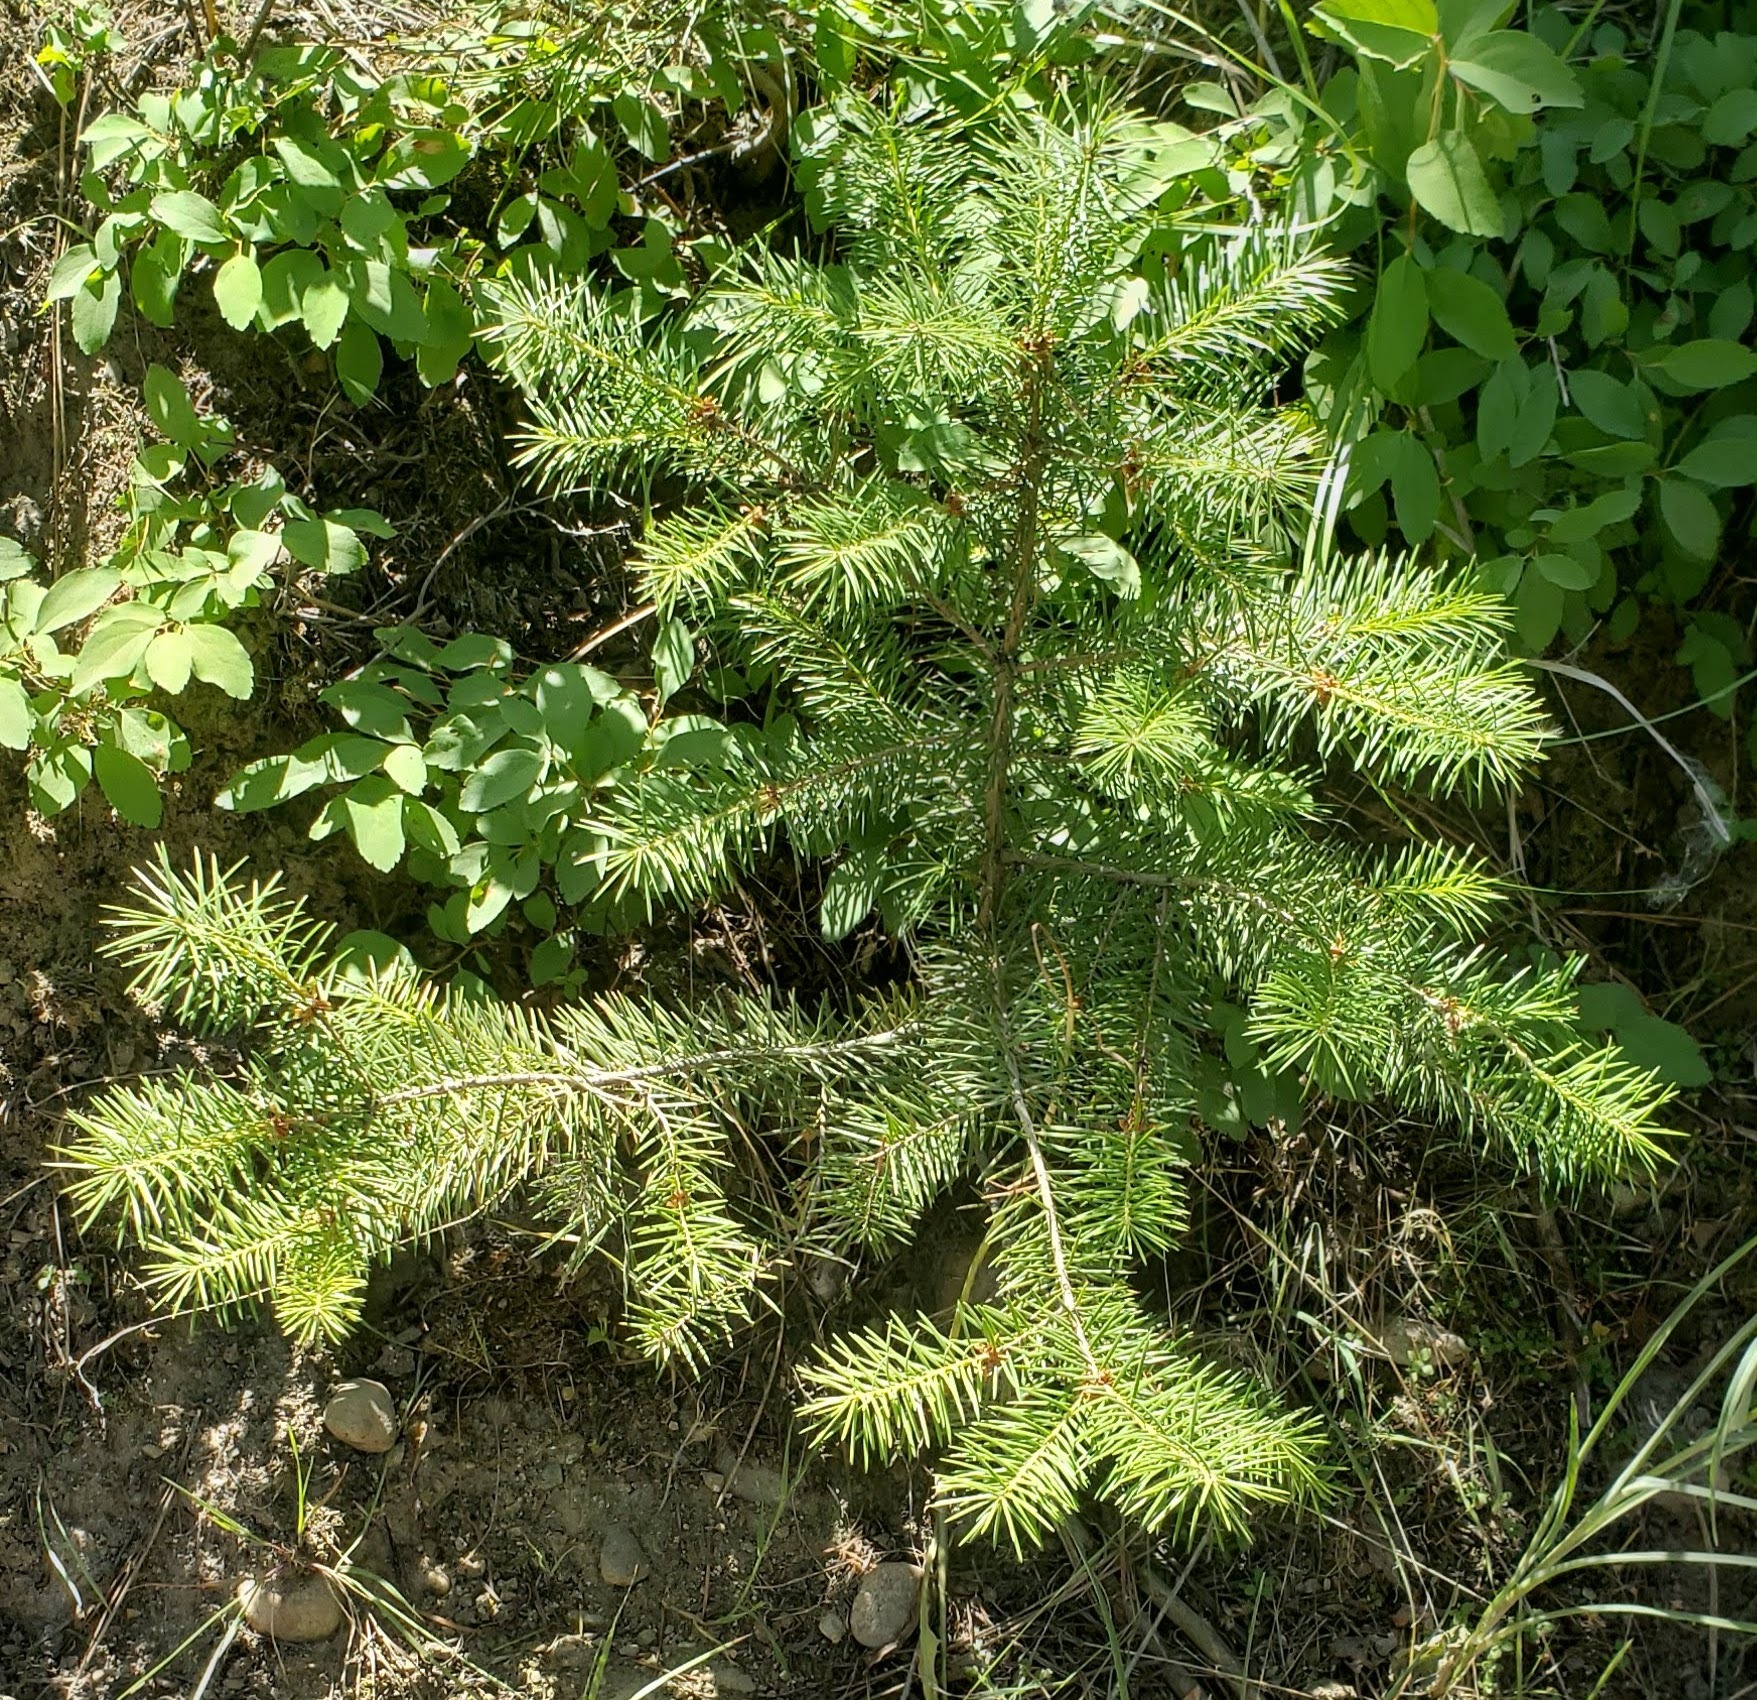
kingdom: Plantae
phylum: Tracheophyta
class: Pinopsida
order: Pinales
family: Pinaceae
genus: Pseudotsuga
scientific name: Pseudotsuga menziesii
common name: Douglas fir
